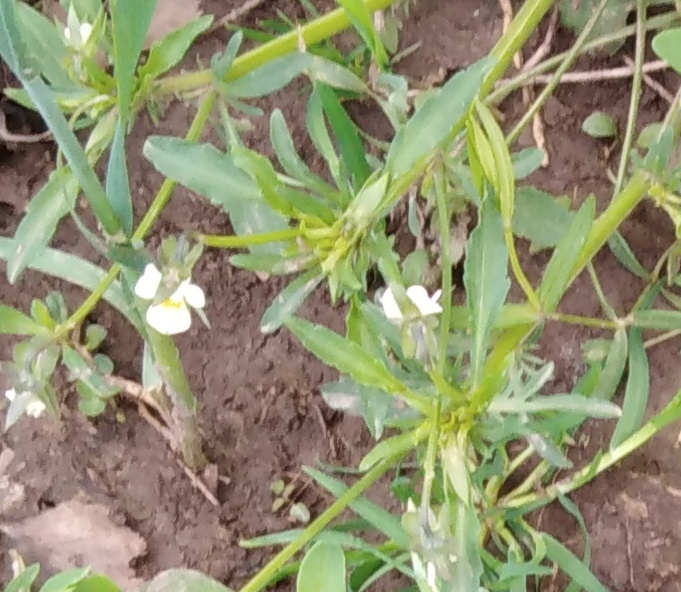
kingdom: Plantae
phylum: Tracheophyta
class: Magnoliopsida
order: Malpighiales
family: Violaceae
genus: Viola
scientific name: Viola arvensis
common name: Field pansy
